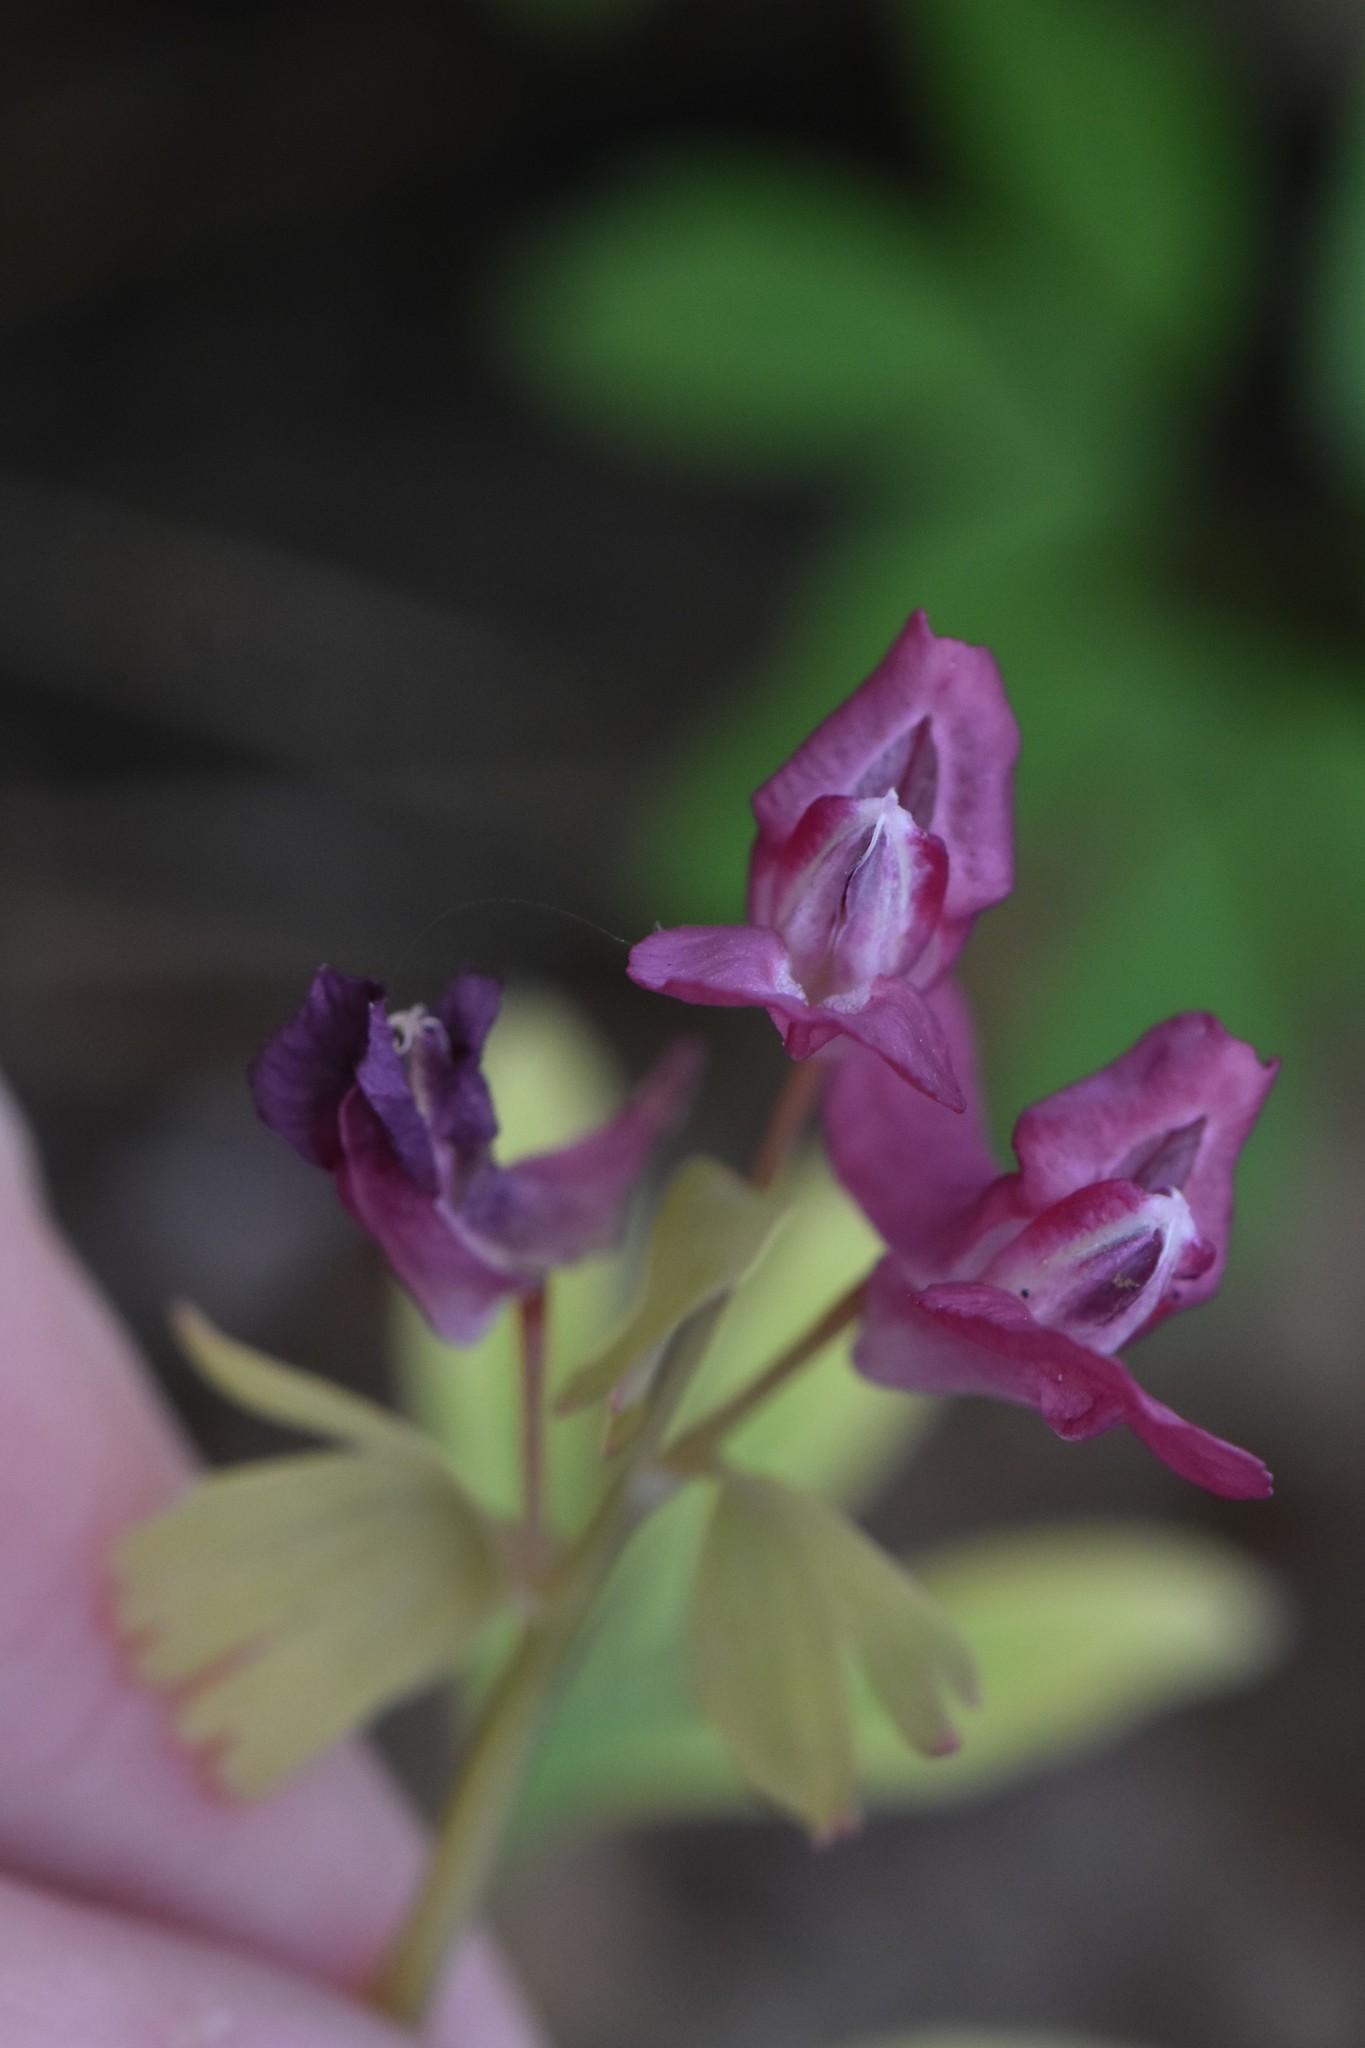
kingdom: Plantae
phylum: Tracheophyta
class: Magnoliopsida
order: Ranunculales
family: Papaveraceae
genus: Corydalis
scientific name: Corydalis solida
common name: Bird-in-a-bush
